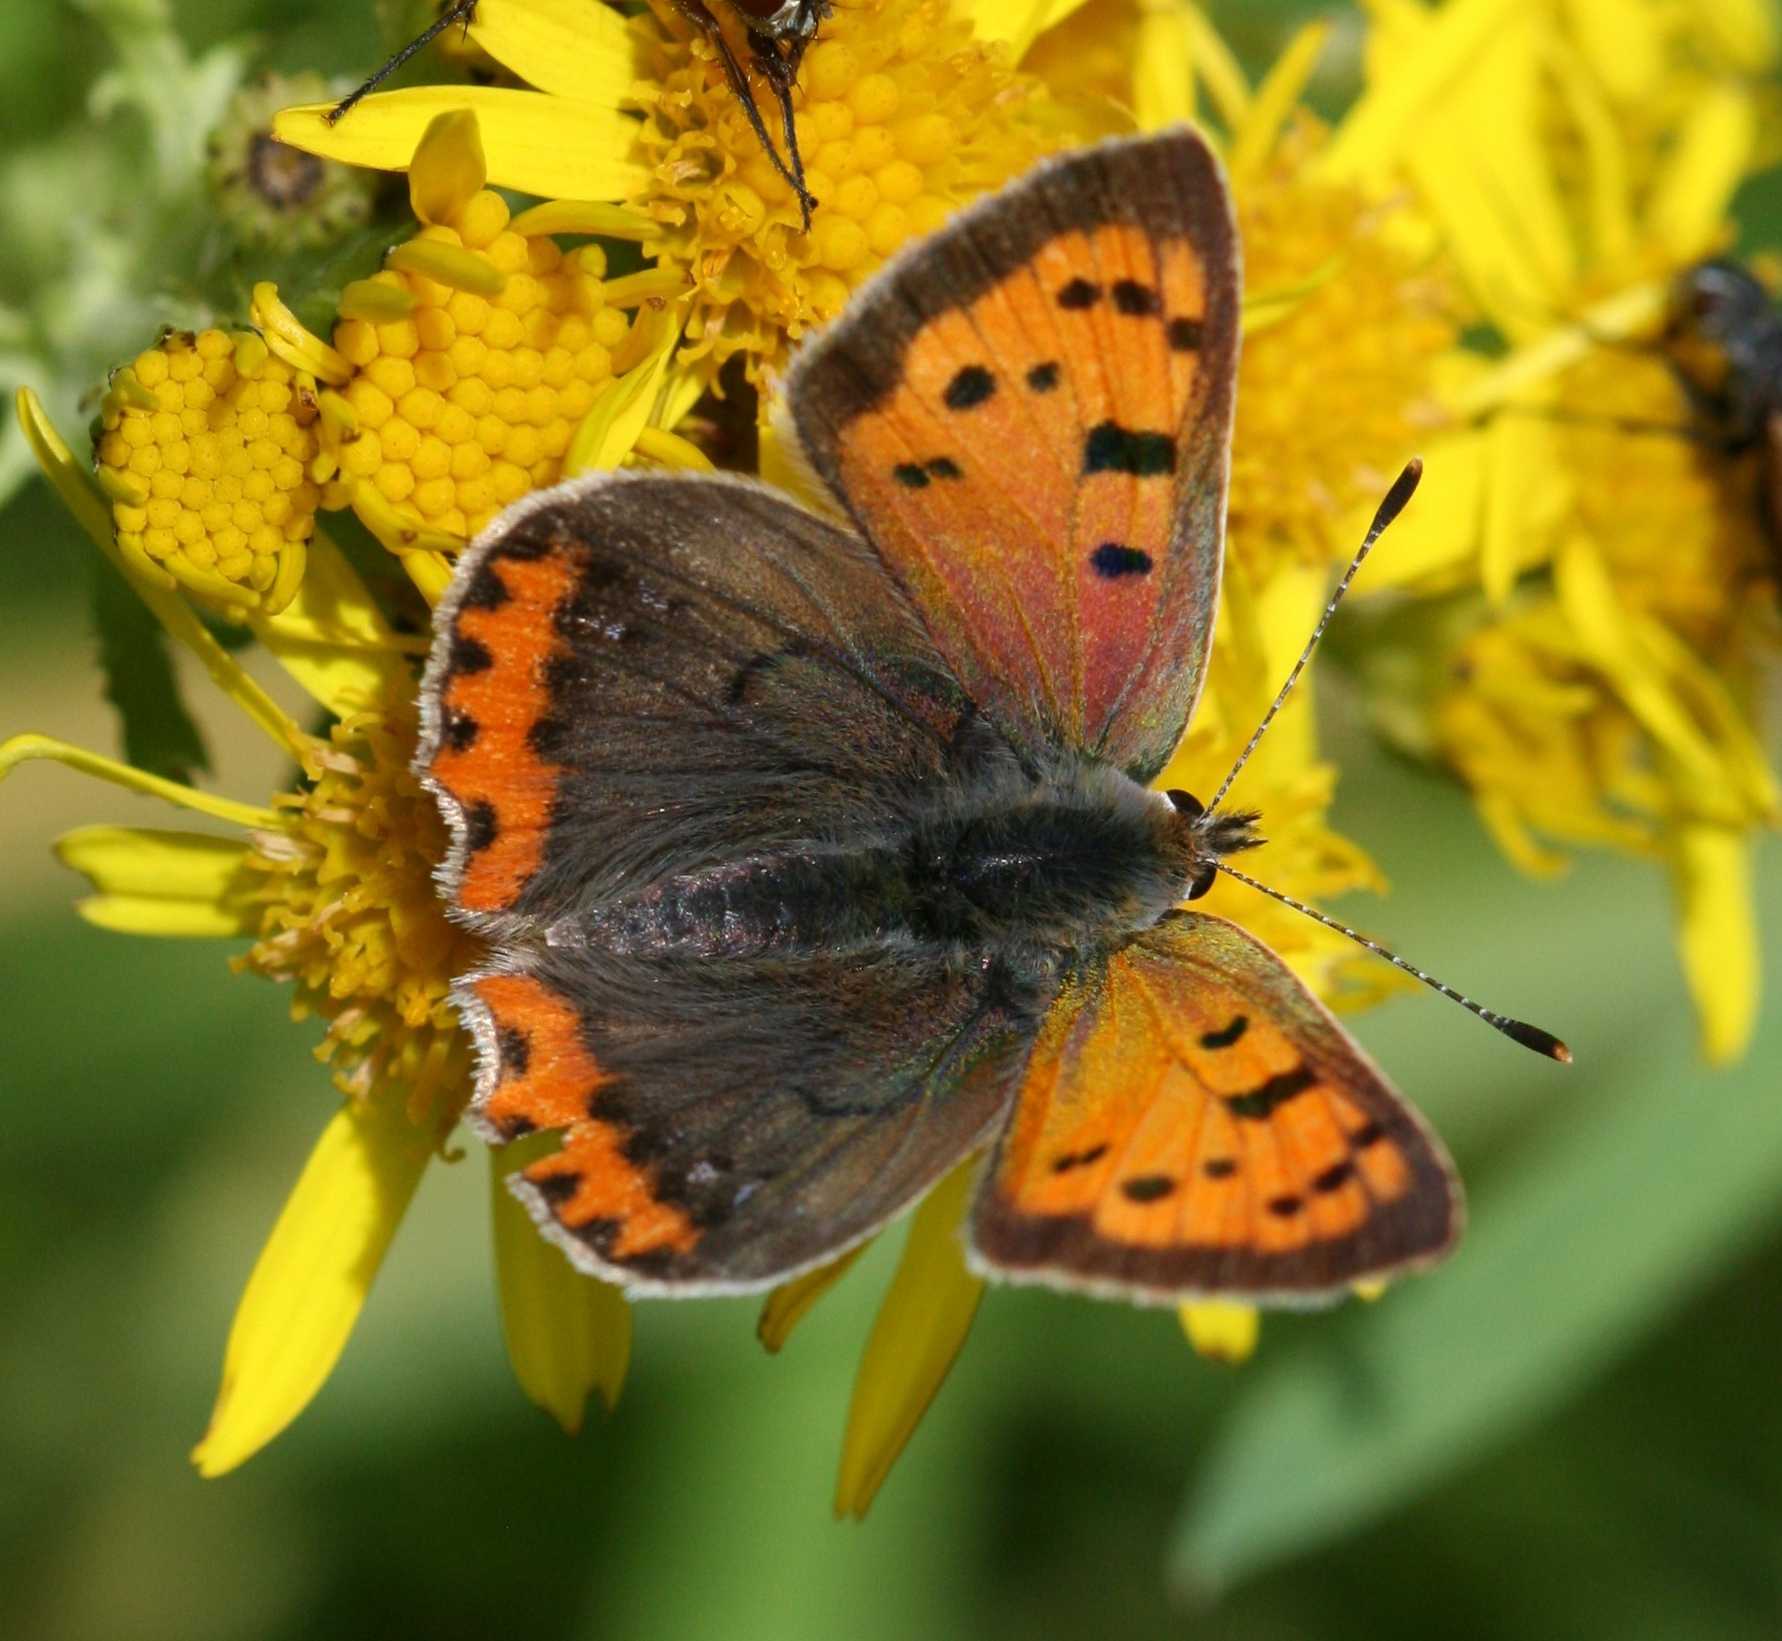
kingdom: Animalia
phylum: Arthropoda
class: Insecta
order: Lepidoptera
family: Lycaenidae
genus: Lycaena
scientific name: Lycaena phlaeas
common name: Small copper
